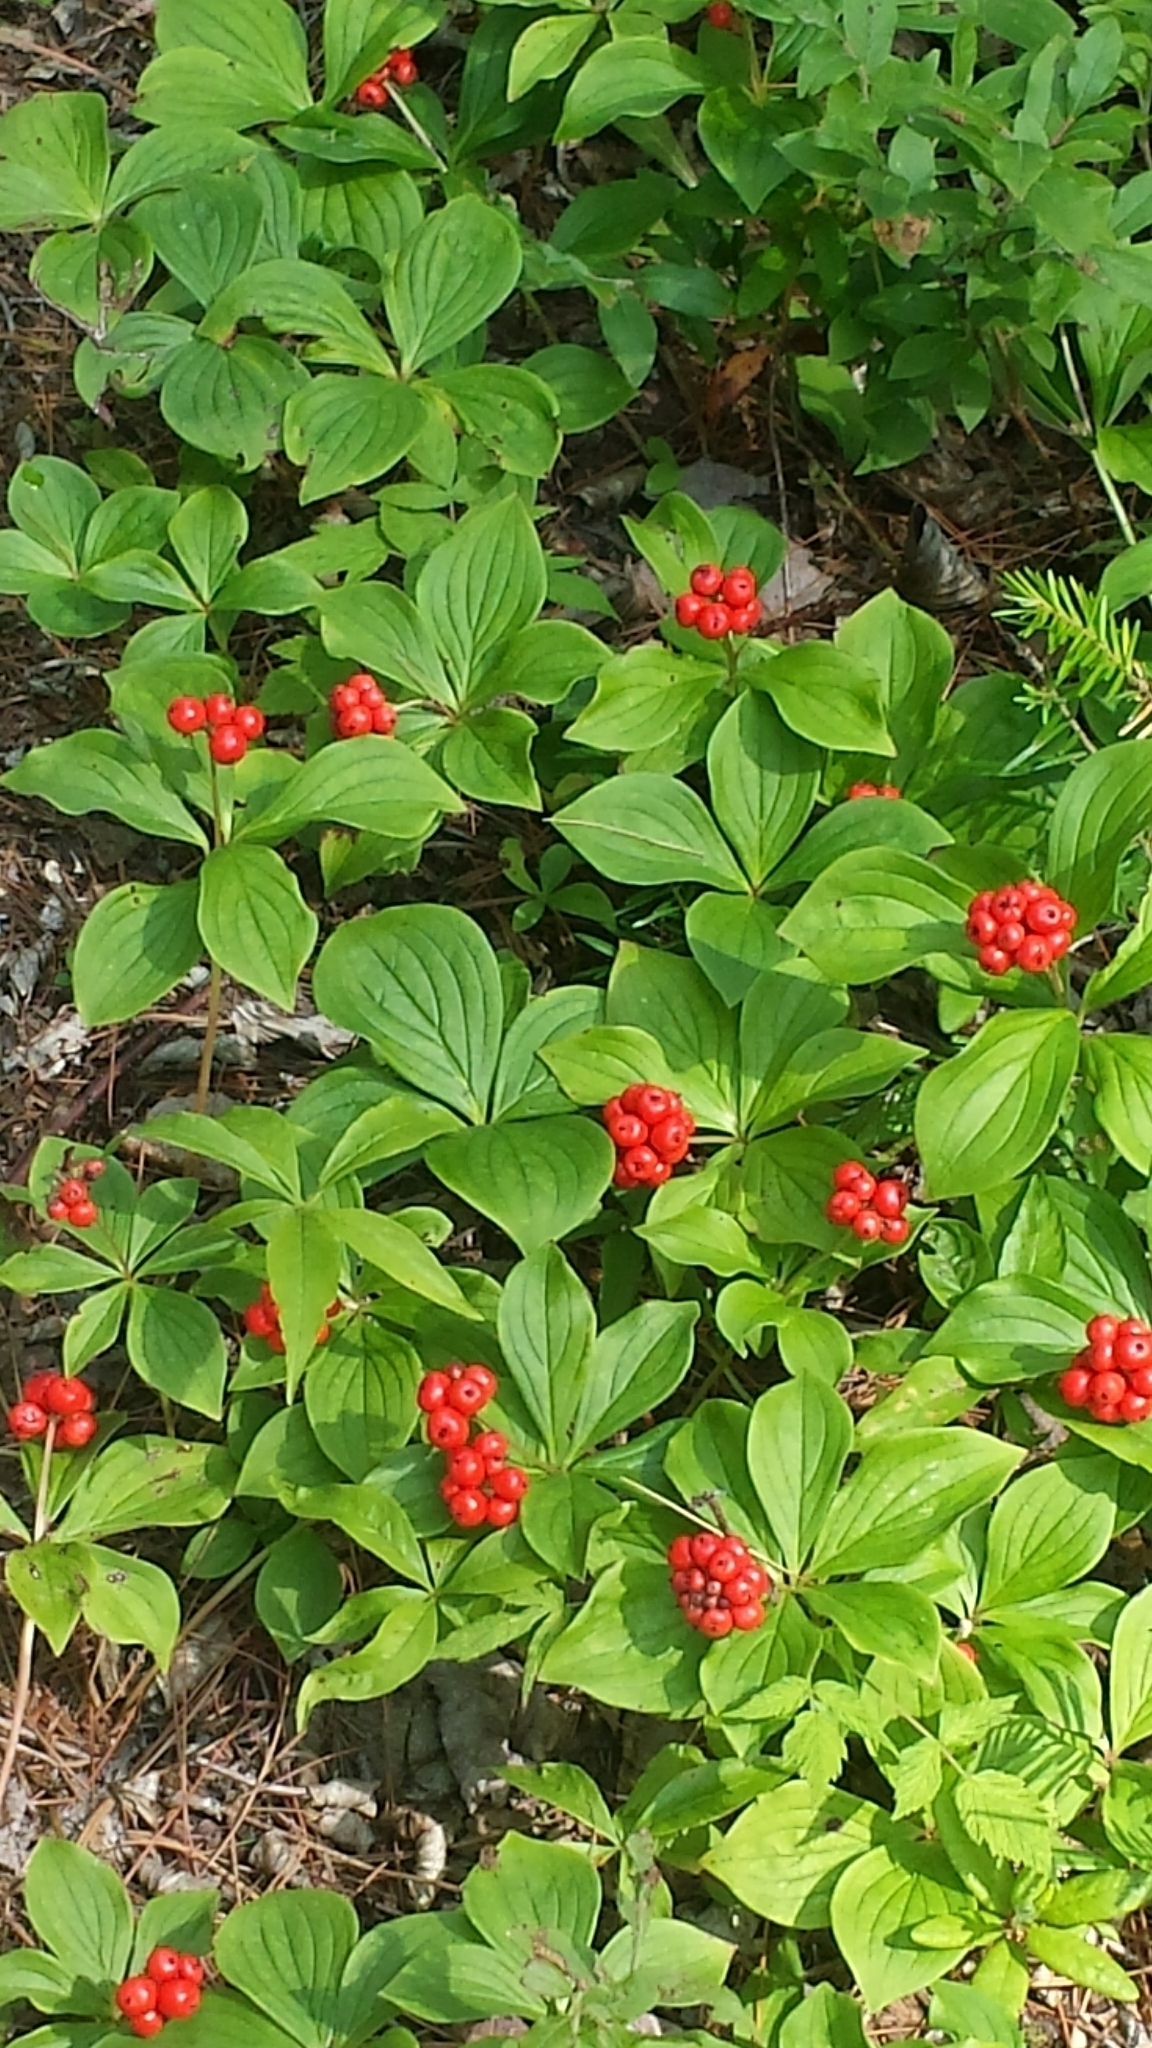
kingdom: Plantae
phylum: Tracheophyta
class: Magnoliopsida
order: Cornales
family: Cornaceae
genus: Cornus
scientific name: Cornus canadensis
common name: Creeping dogwood
